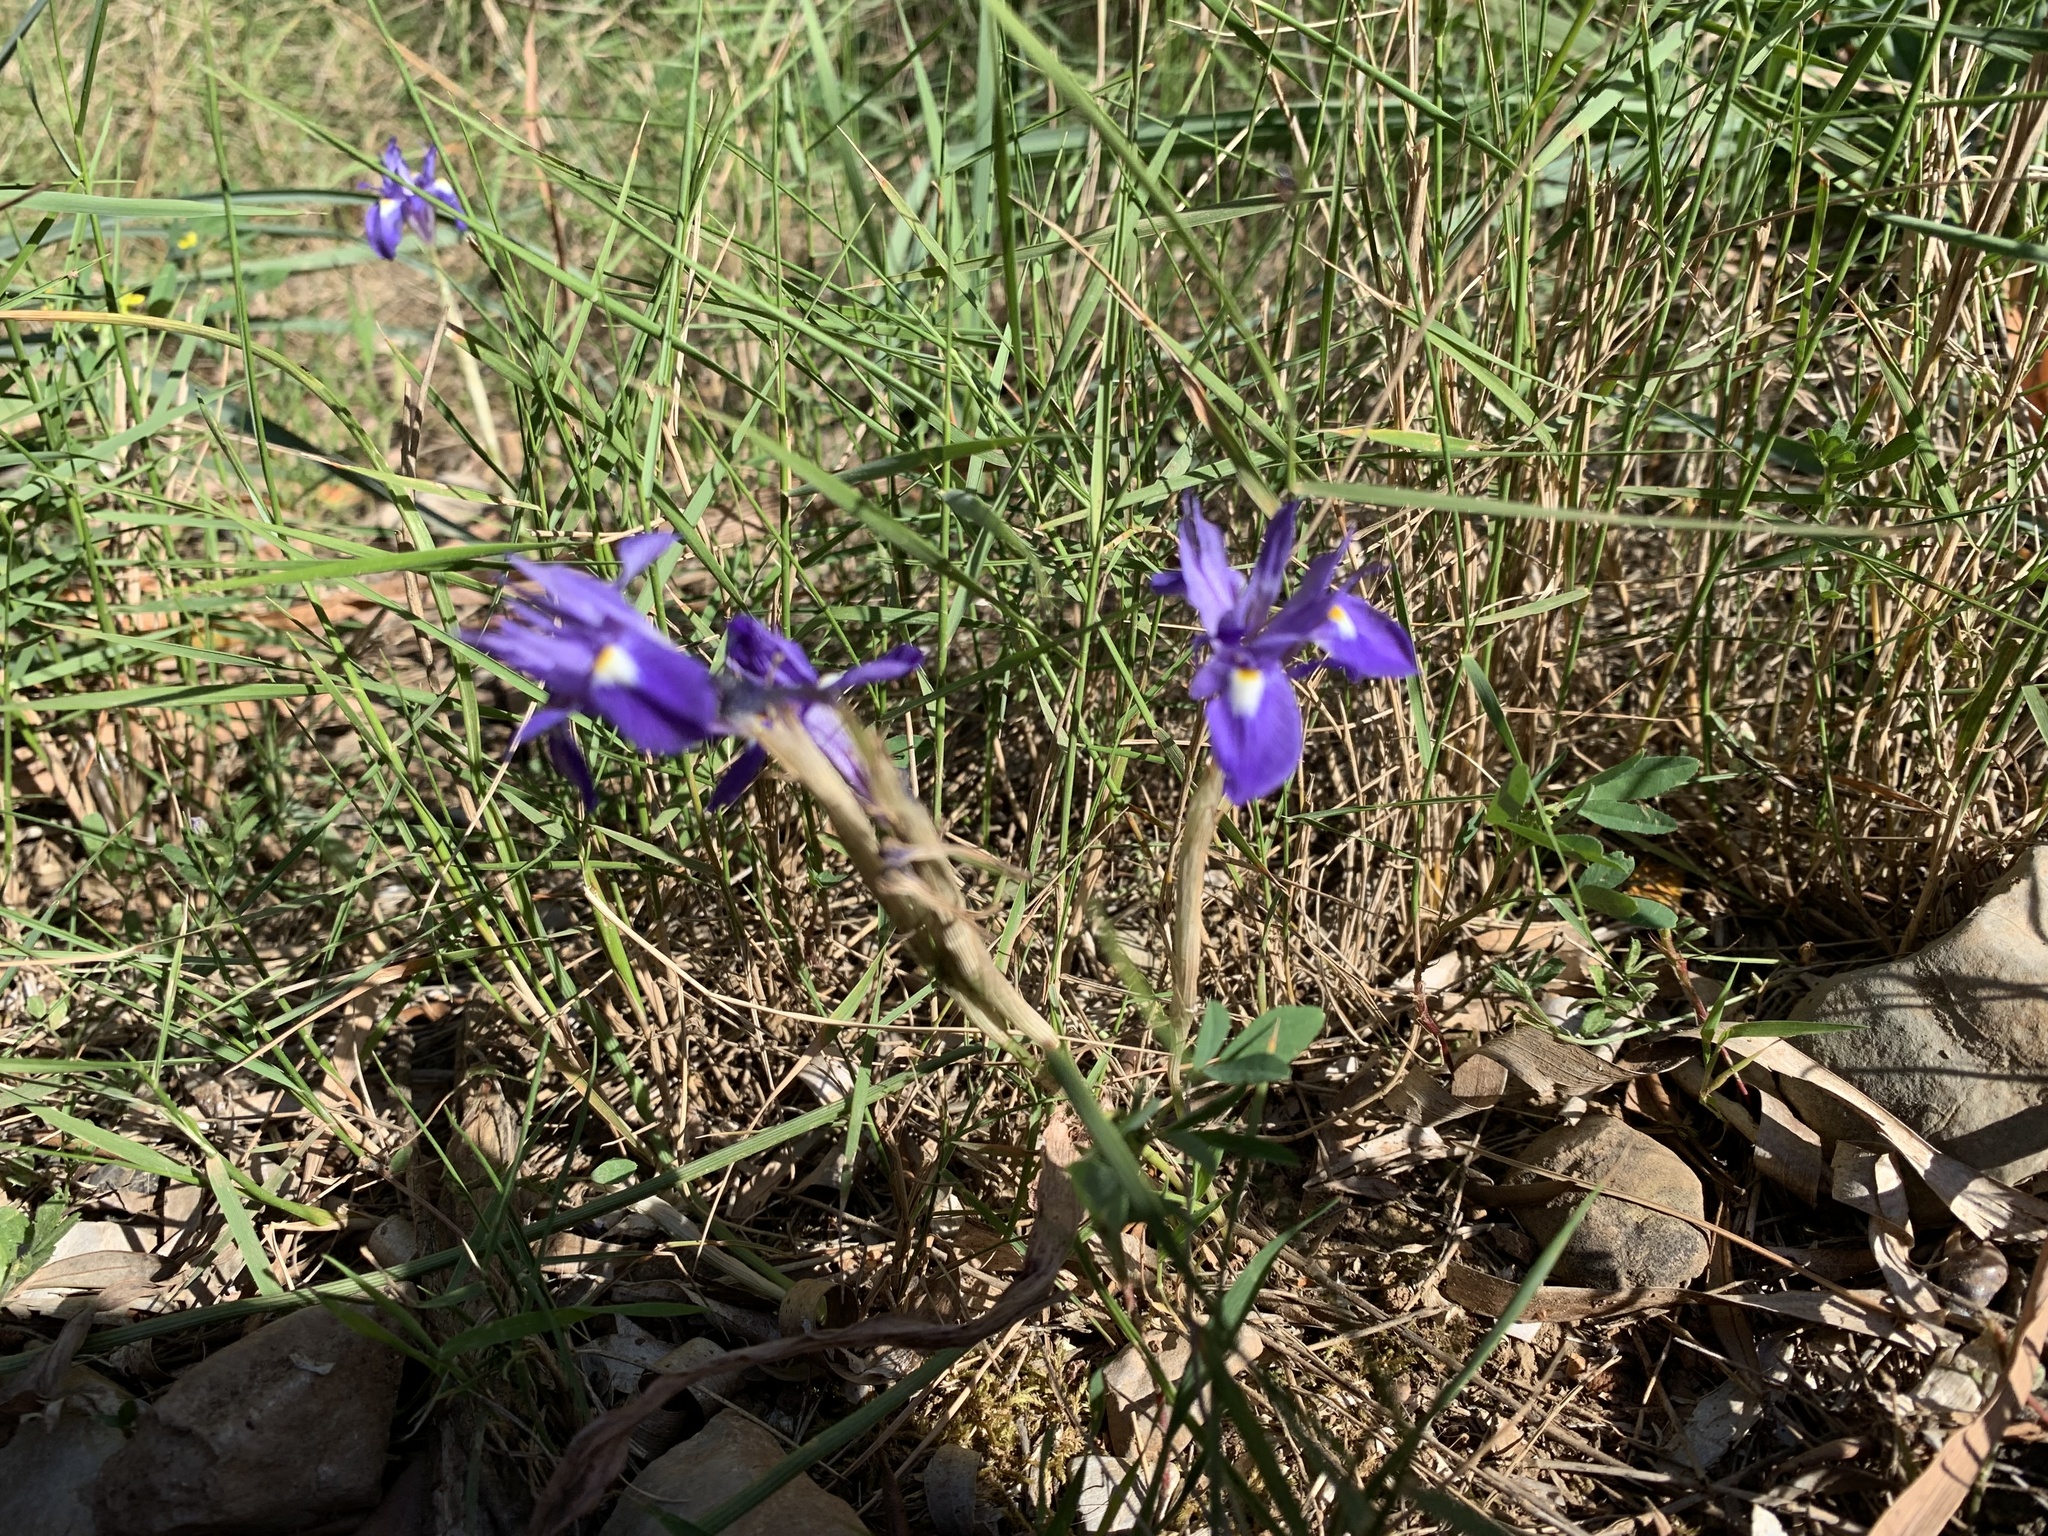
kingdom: Plantae
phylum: Tracheophyta
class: Liliopsida
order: Asparagales
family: Iridaceae
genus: Moraea
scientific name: Moraea sisyrinchium
